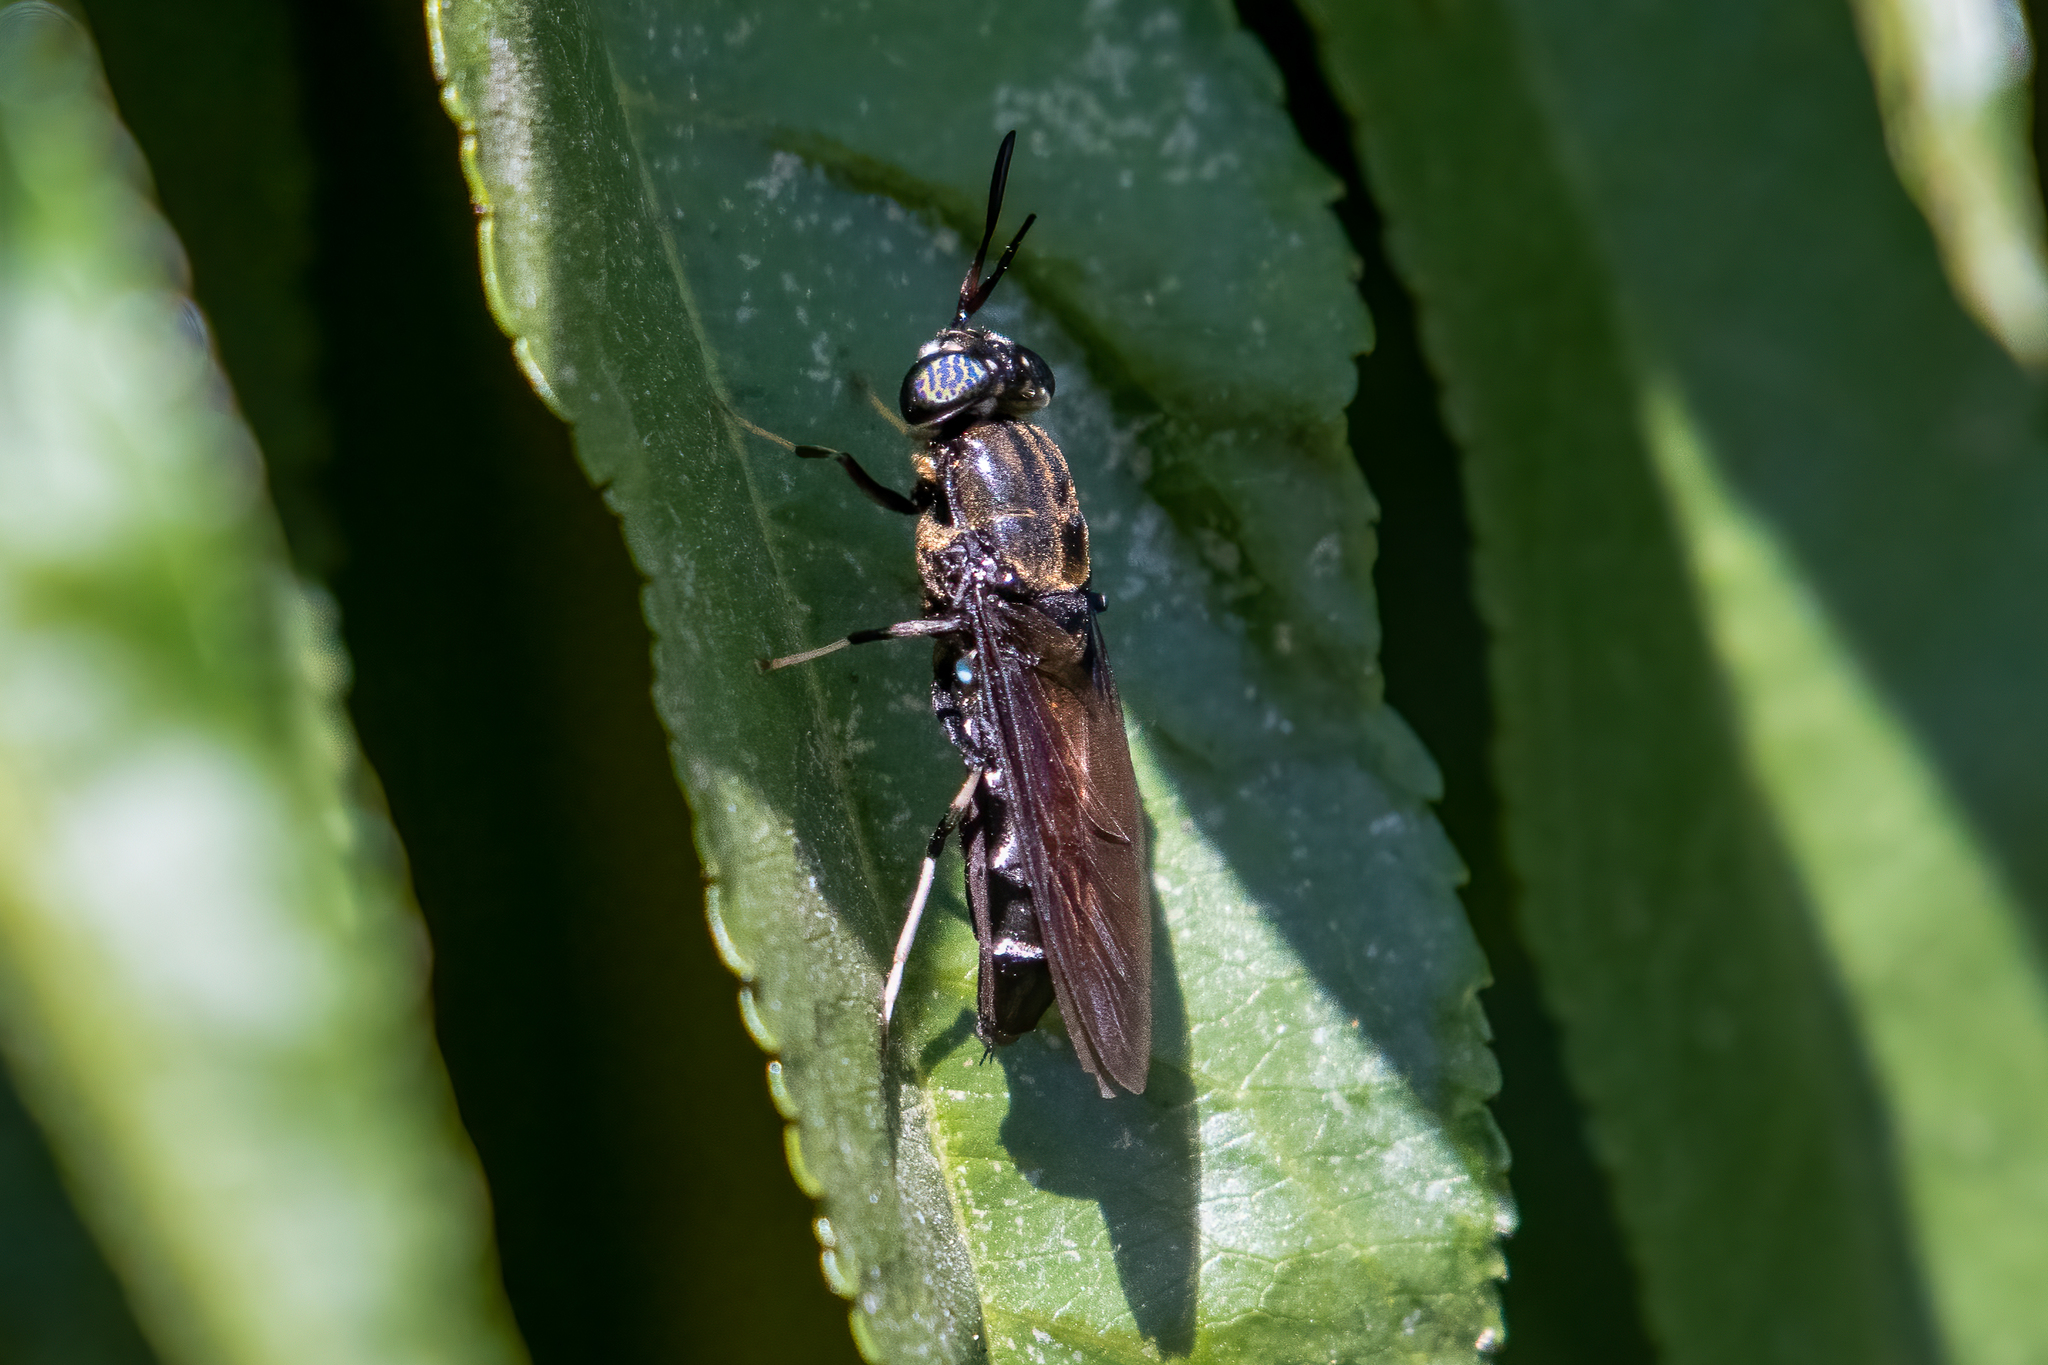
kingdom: Animalia
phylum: Arthropoda
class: Insecta
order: Diptera
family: Stratiomyidae
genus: Hermetia
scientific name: Hermetia illucens
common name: Black soldier fly
